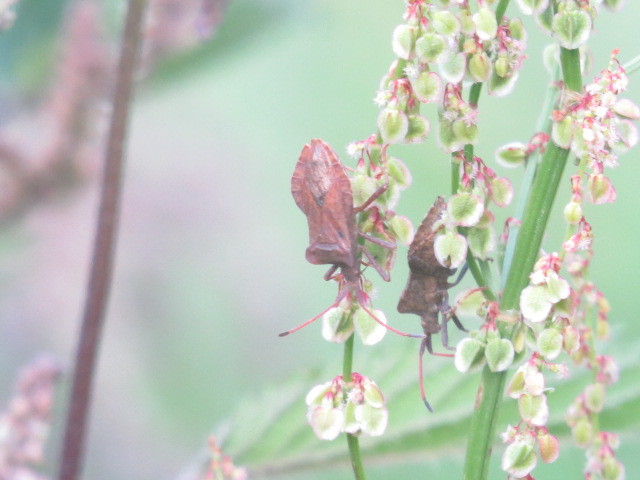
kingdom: Animalia
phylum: Arthropoda
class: Insecta
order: Hemiptera
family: Coreidae
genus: Coreus
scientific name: Coreus marginatus
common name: Dock bug
